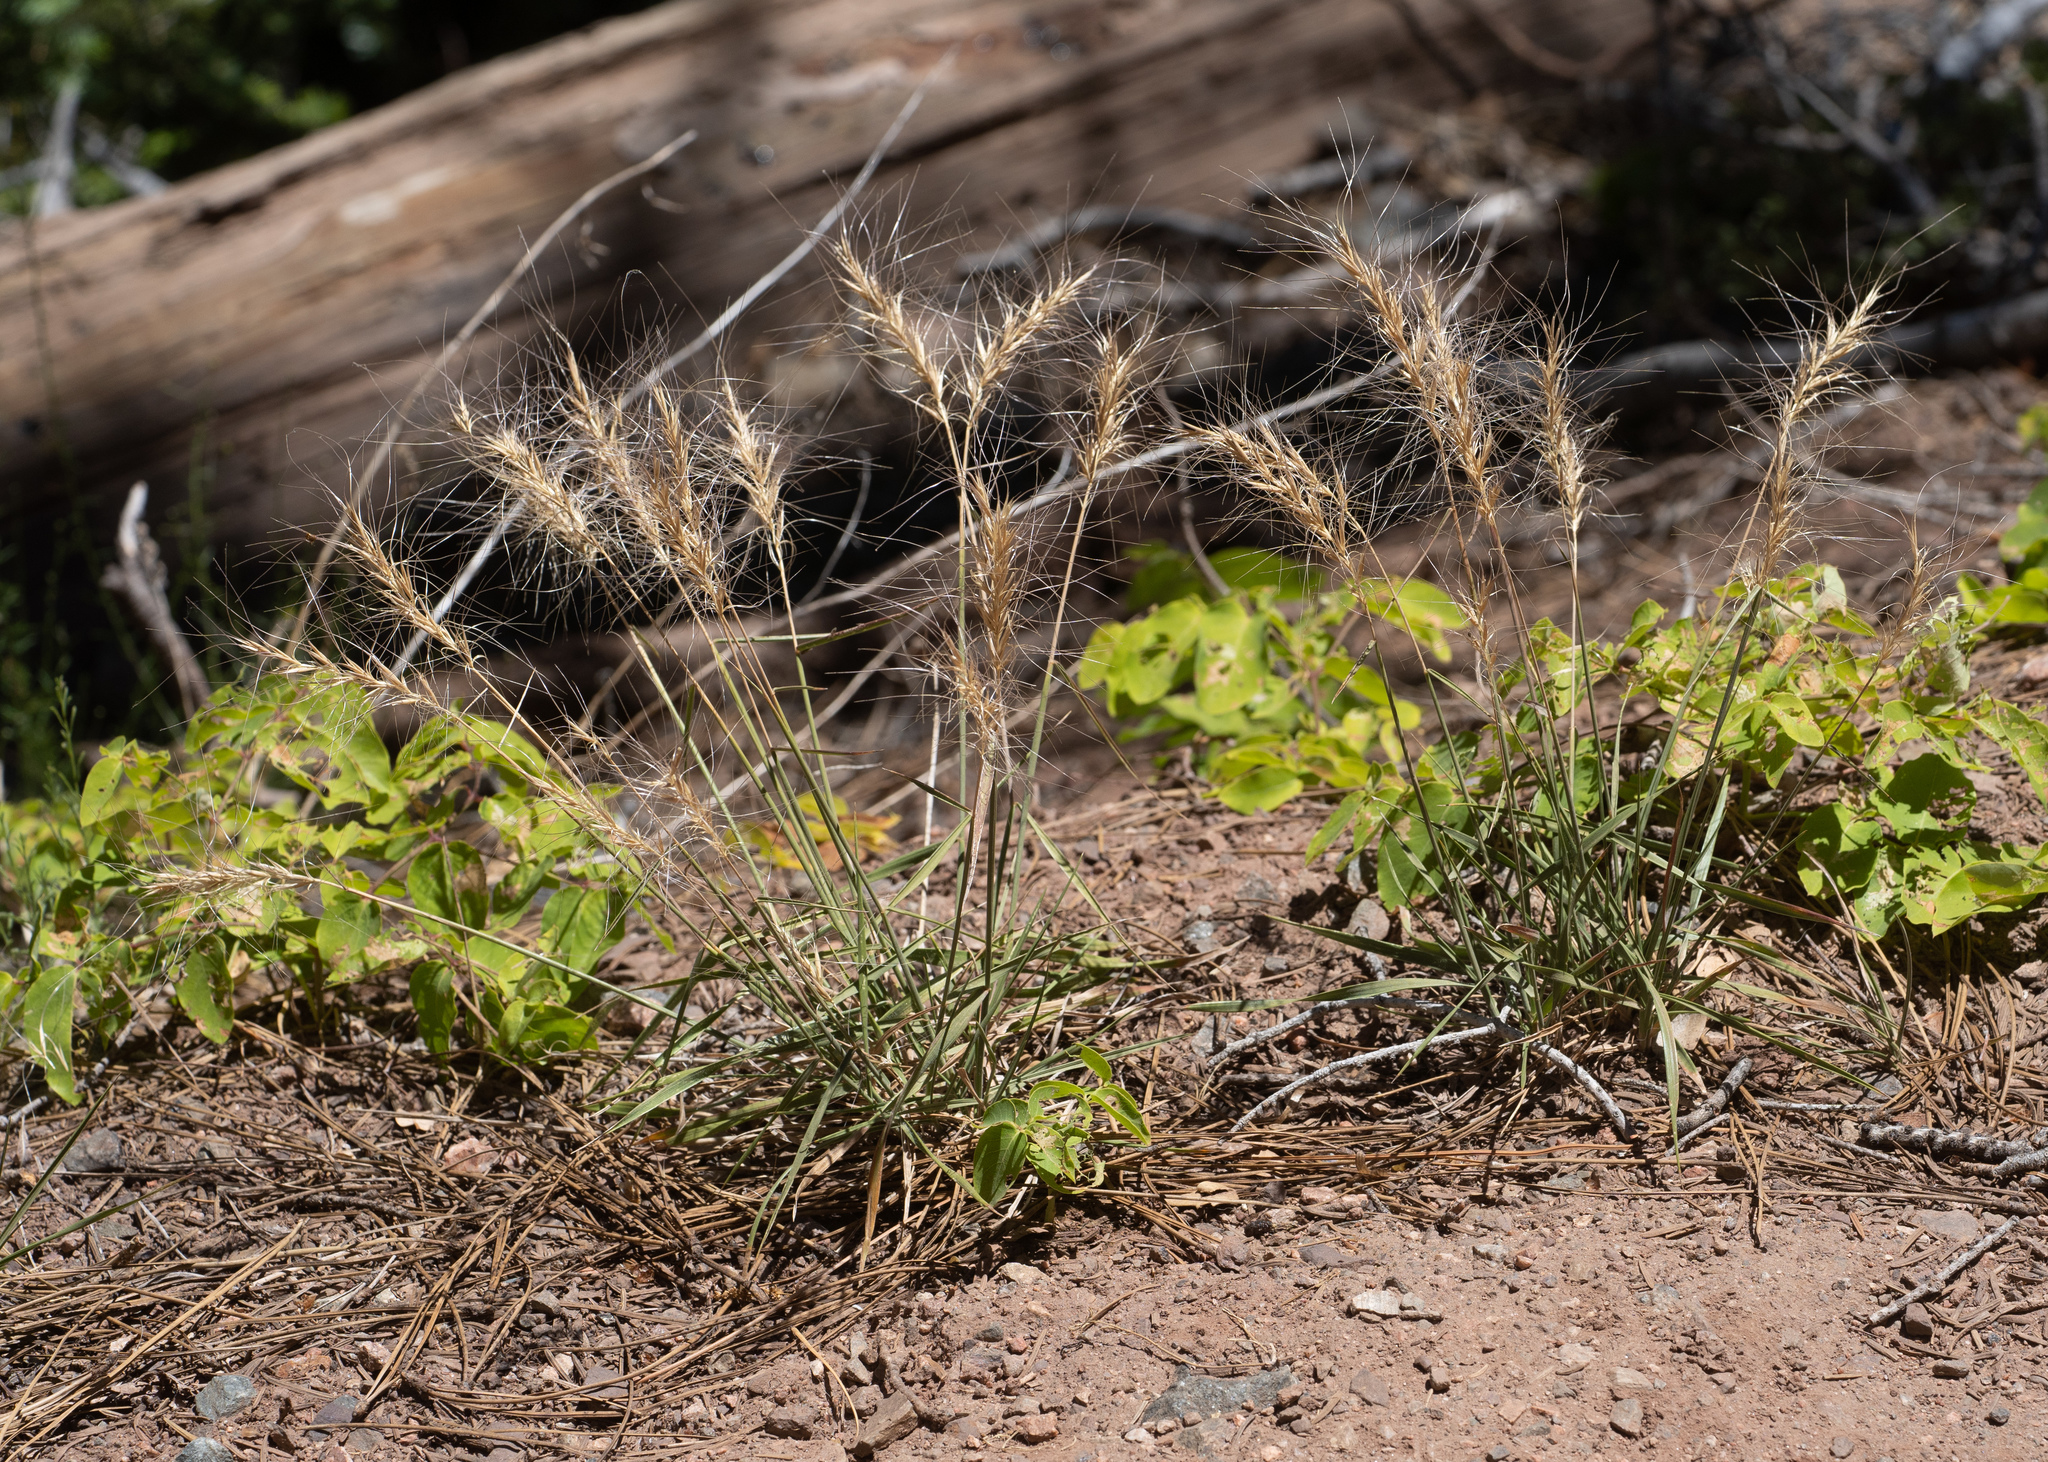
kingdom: Plantae
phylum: Tracheophyta
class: Liliopsida
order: Poales
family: Poaceae
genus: Elymus
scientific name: Elymus elymoides
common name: Bottlebrush squirreltail
